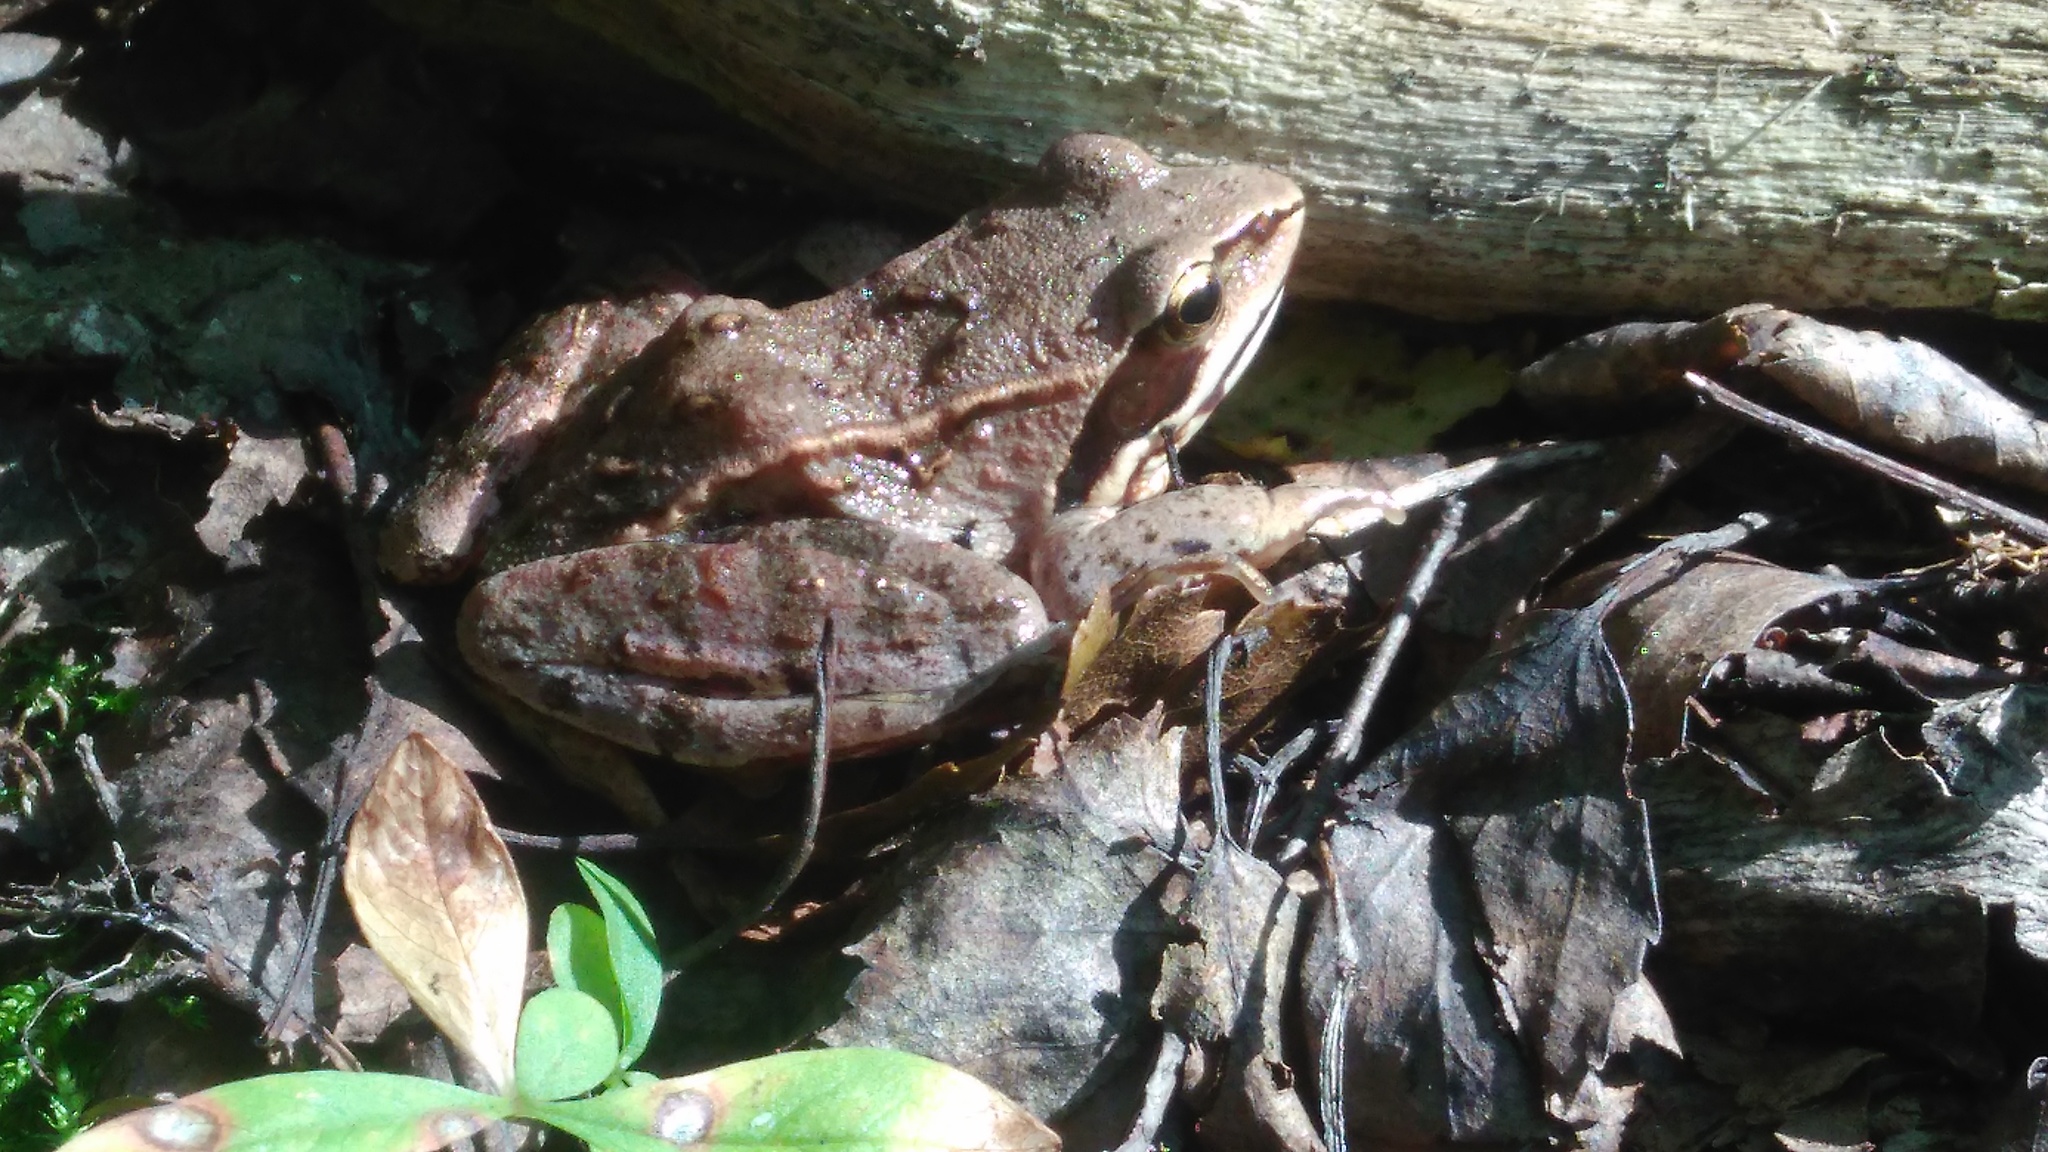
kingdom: Animalia
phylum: Chordata
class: Amphibia
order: Anura
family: Ranidae
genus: Rana
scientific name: Rana arvalis
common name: Moor frog
